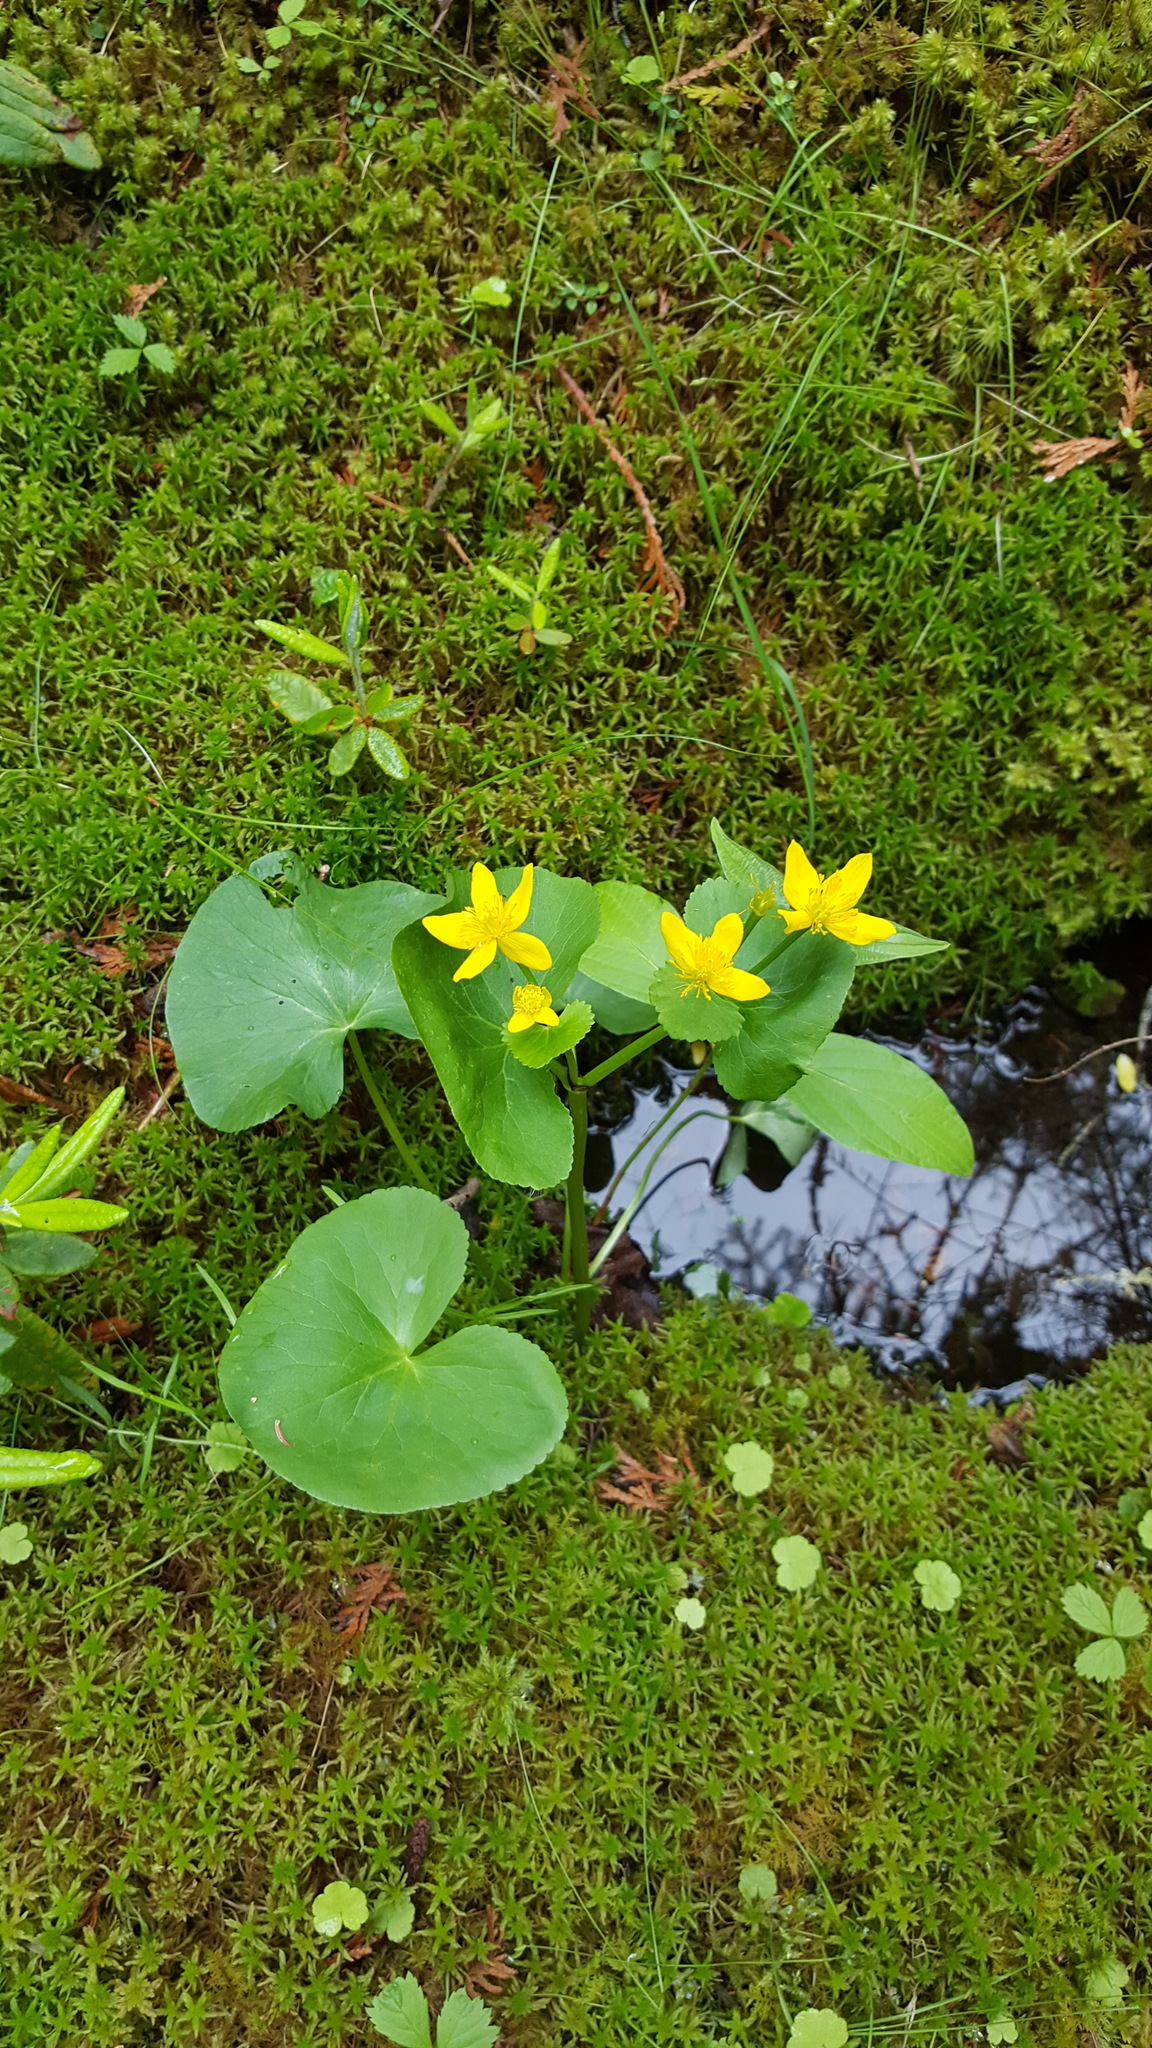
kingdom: Plantae
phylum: Tracheophyta
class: Magnoliopsida
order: Ranunculales
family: Ranunculaceae
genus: Caltha
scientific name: Caltha palustris
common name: Marsh marigold
